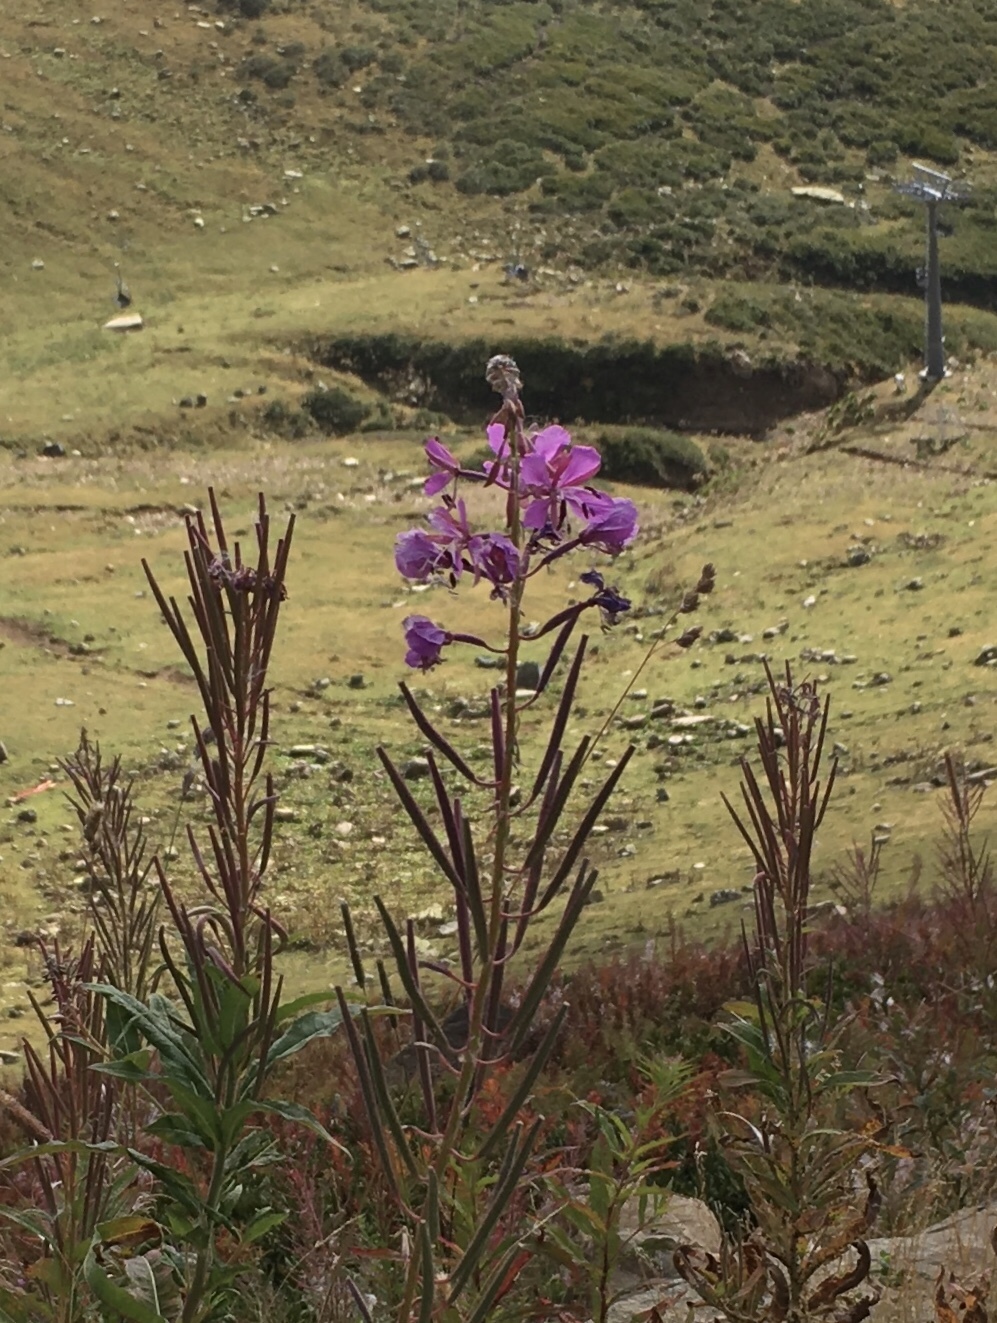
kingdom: Plantae
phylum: Tracheophyta
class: Magnoliopsida
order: Myrtales
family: Onagraceae
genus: Chamaenerion
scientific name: Chamaenerion angustifolium
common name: Fireweed
